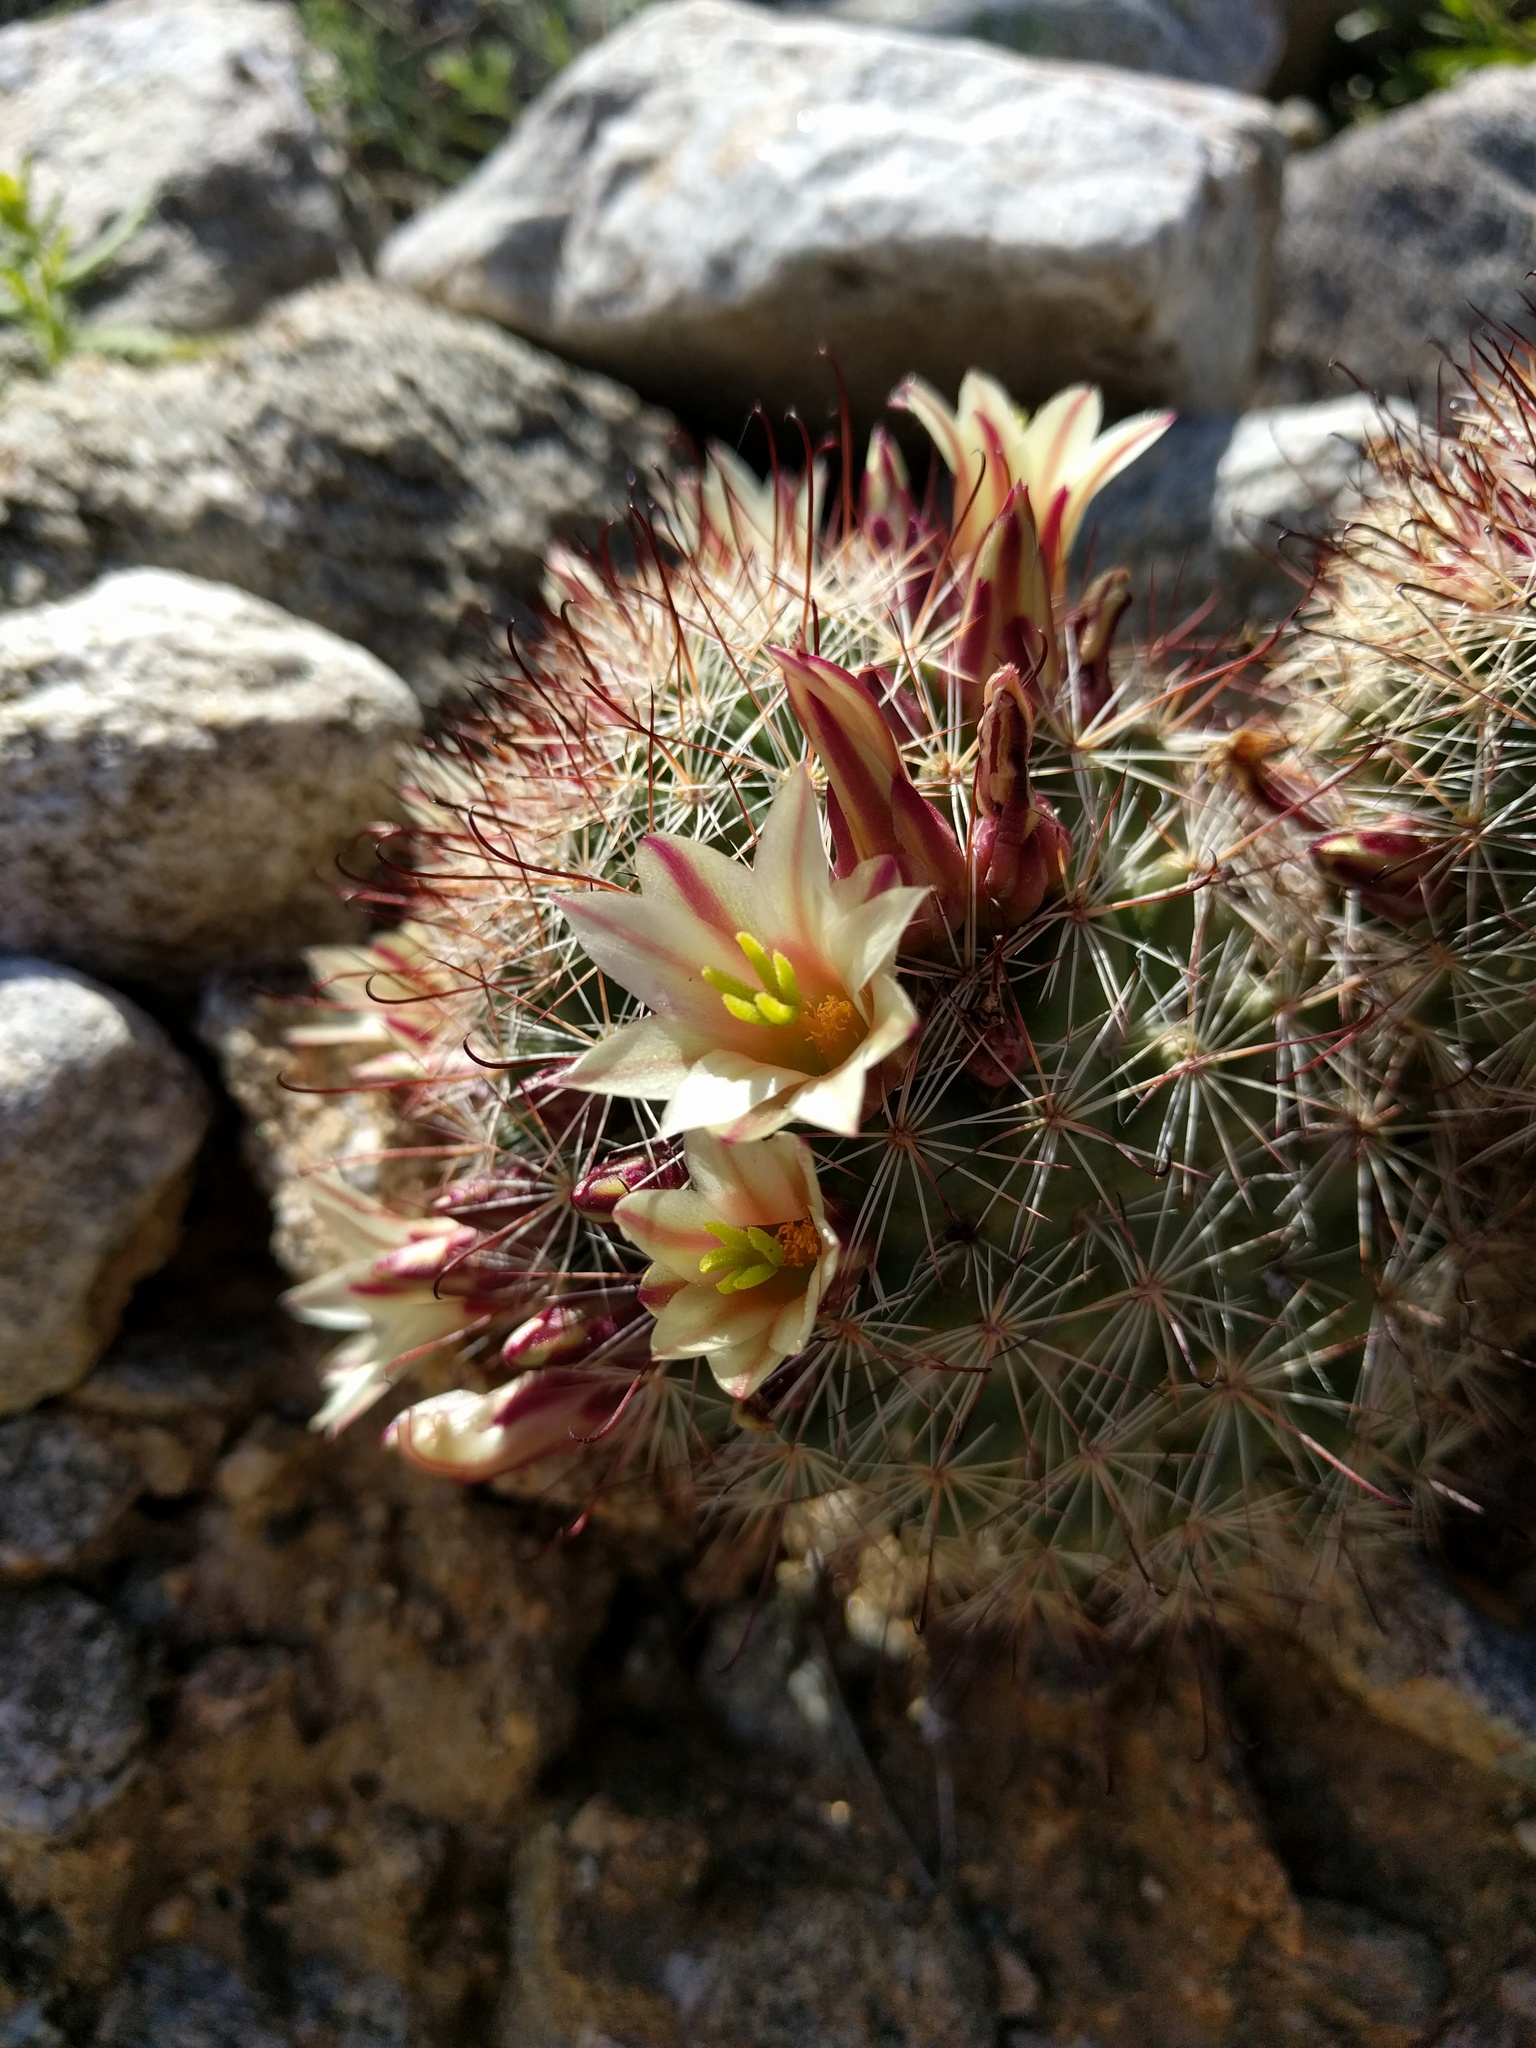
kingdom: Plantae
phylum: Tracheophyta
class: Magnoliopsida
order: Caryophyllales
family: Cactaceae
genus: Cochemiea
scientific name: Cochemiea dioica
